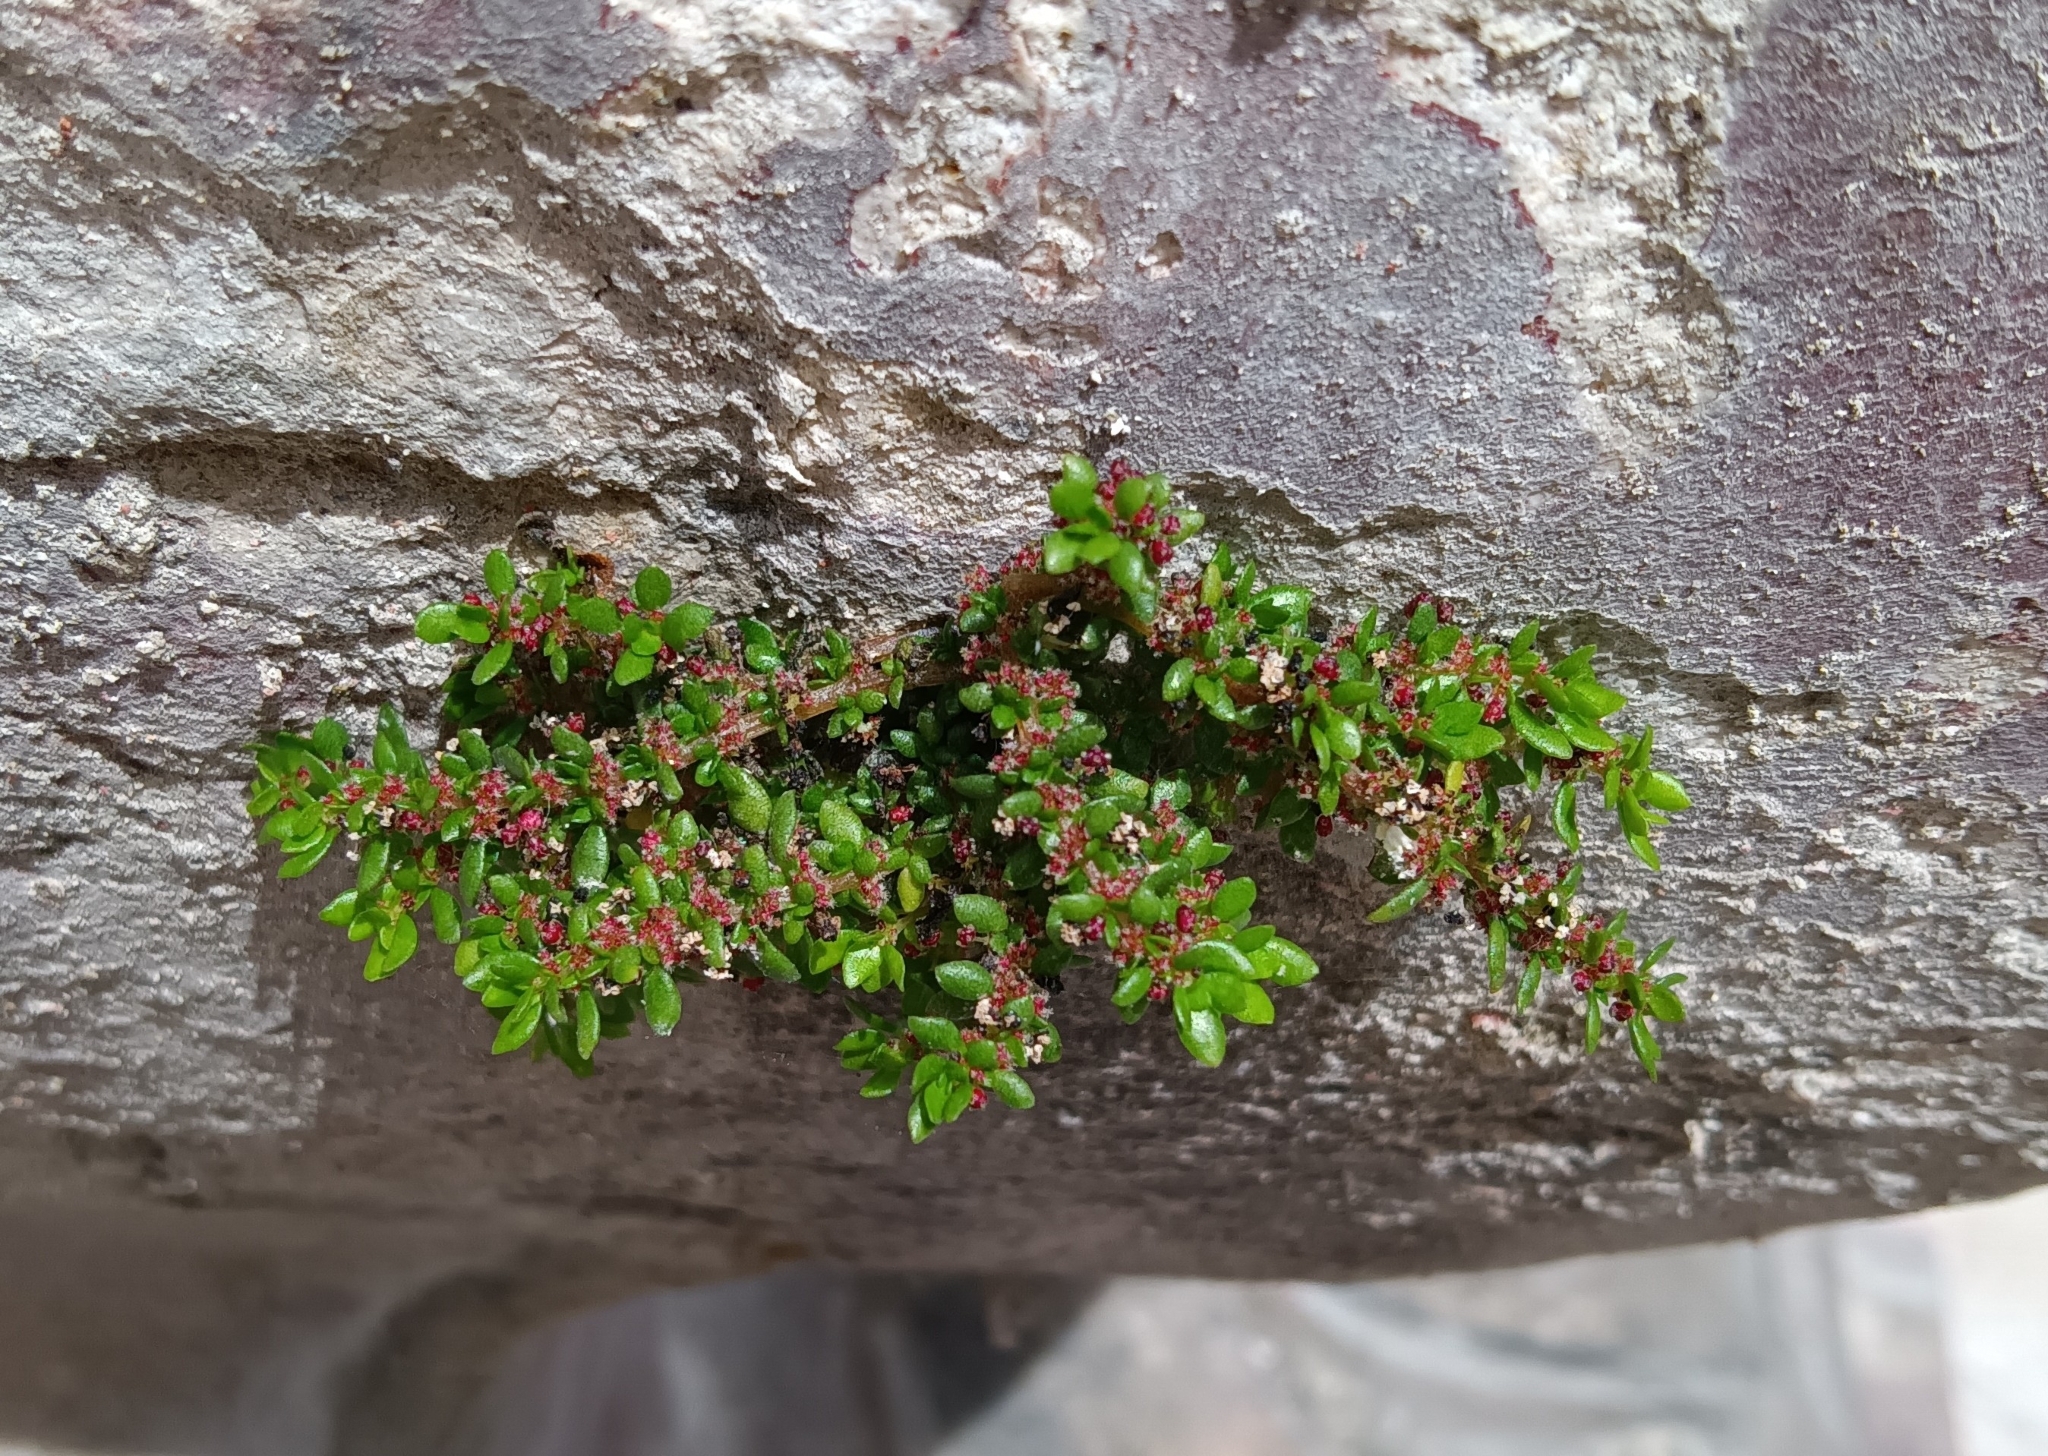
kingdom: Plantae
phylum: Tracheophyta
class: Magnoliopsida
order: Rosales
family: Urticaceae
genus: Pilea
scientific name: Pilea microphylla
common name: Artillery-plant
